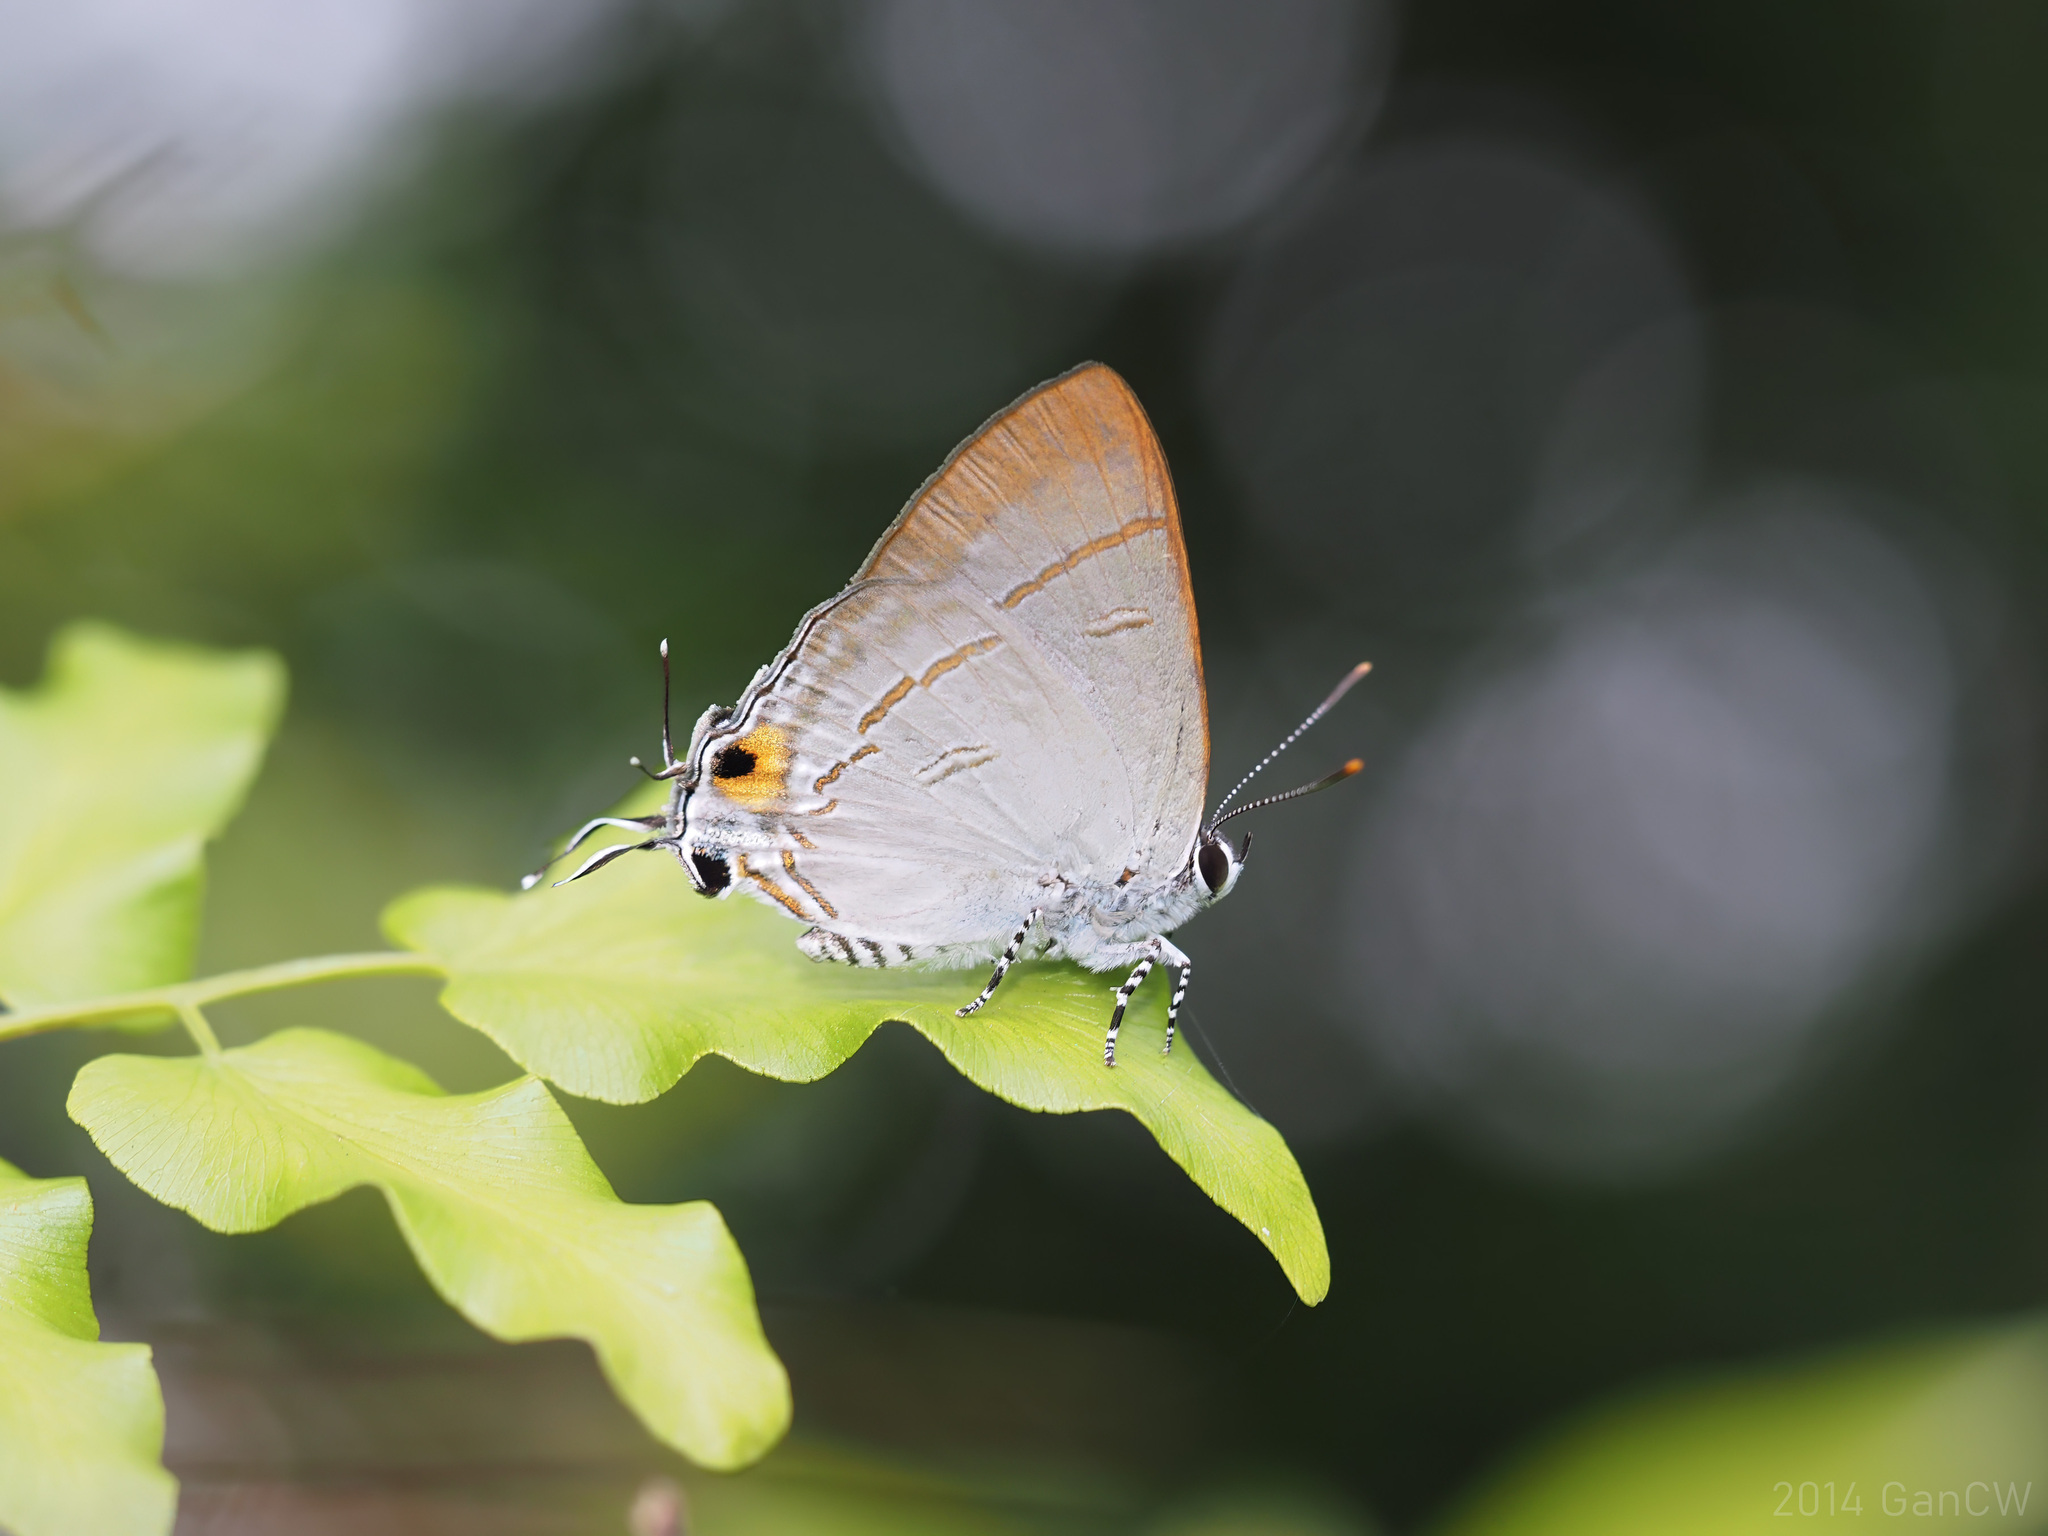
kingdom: Animalia
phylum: Arthropoda
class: Insecta
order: Lepidoptera
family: Lycaenidae
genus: Hypolycaena
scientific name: Hypolycaena erylus
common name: Common tit
